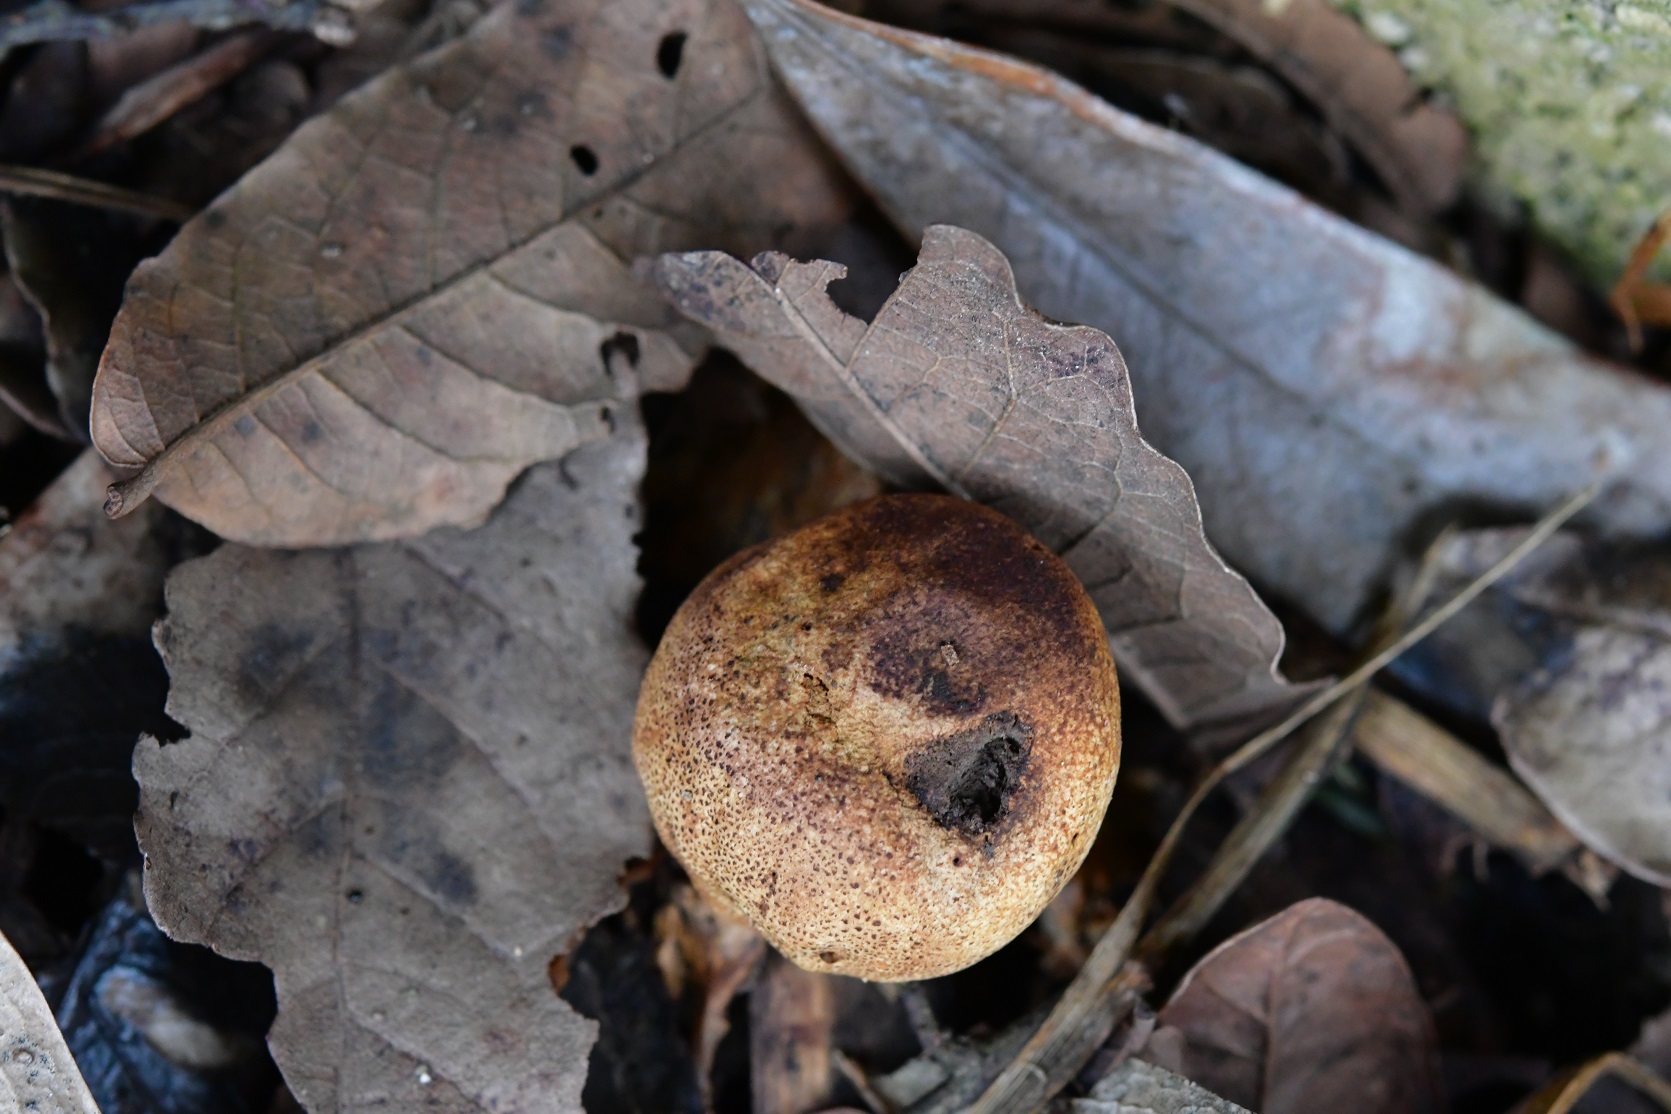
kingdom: Fungi
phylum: Basidiomycota
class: Agaricomycetes
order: Boletales
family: Sclerodermataceae
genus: Scleroderma
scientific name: Scleroderma areolatum
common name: Leopard earthball
